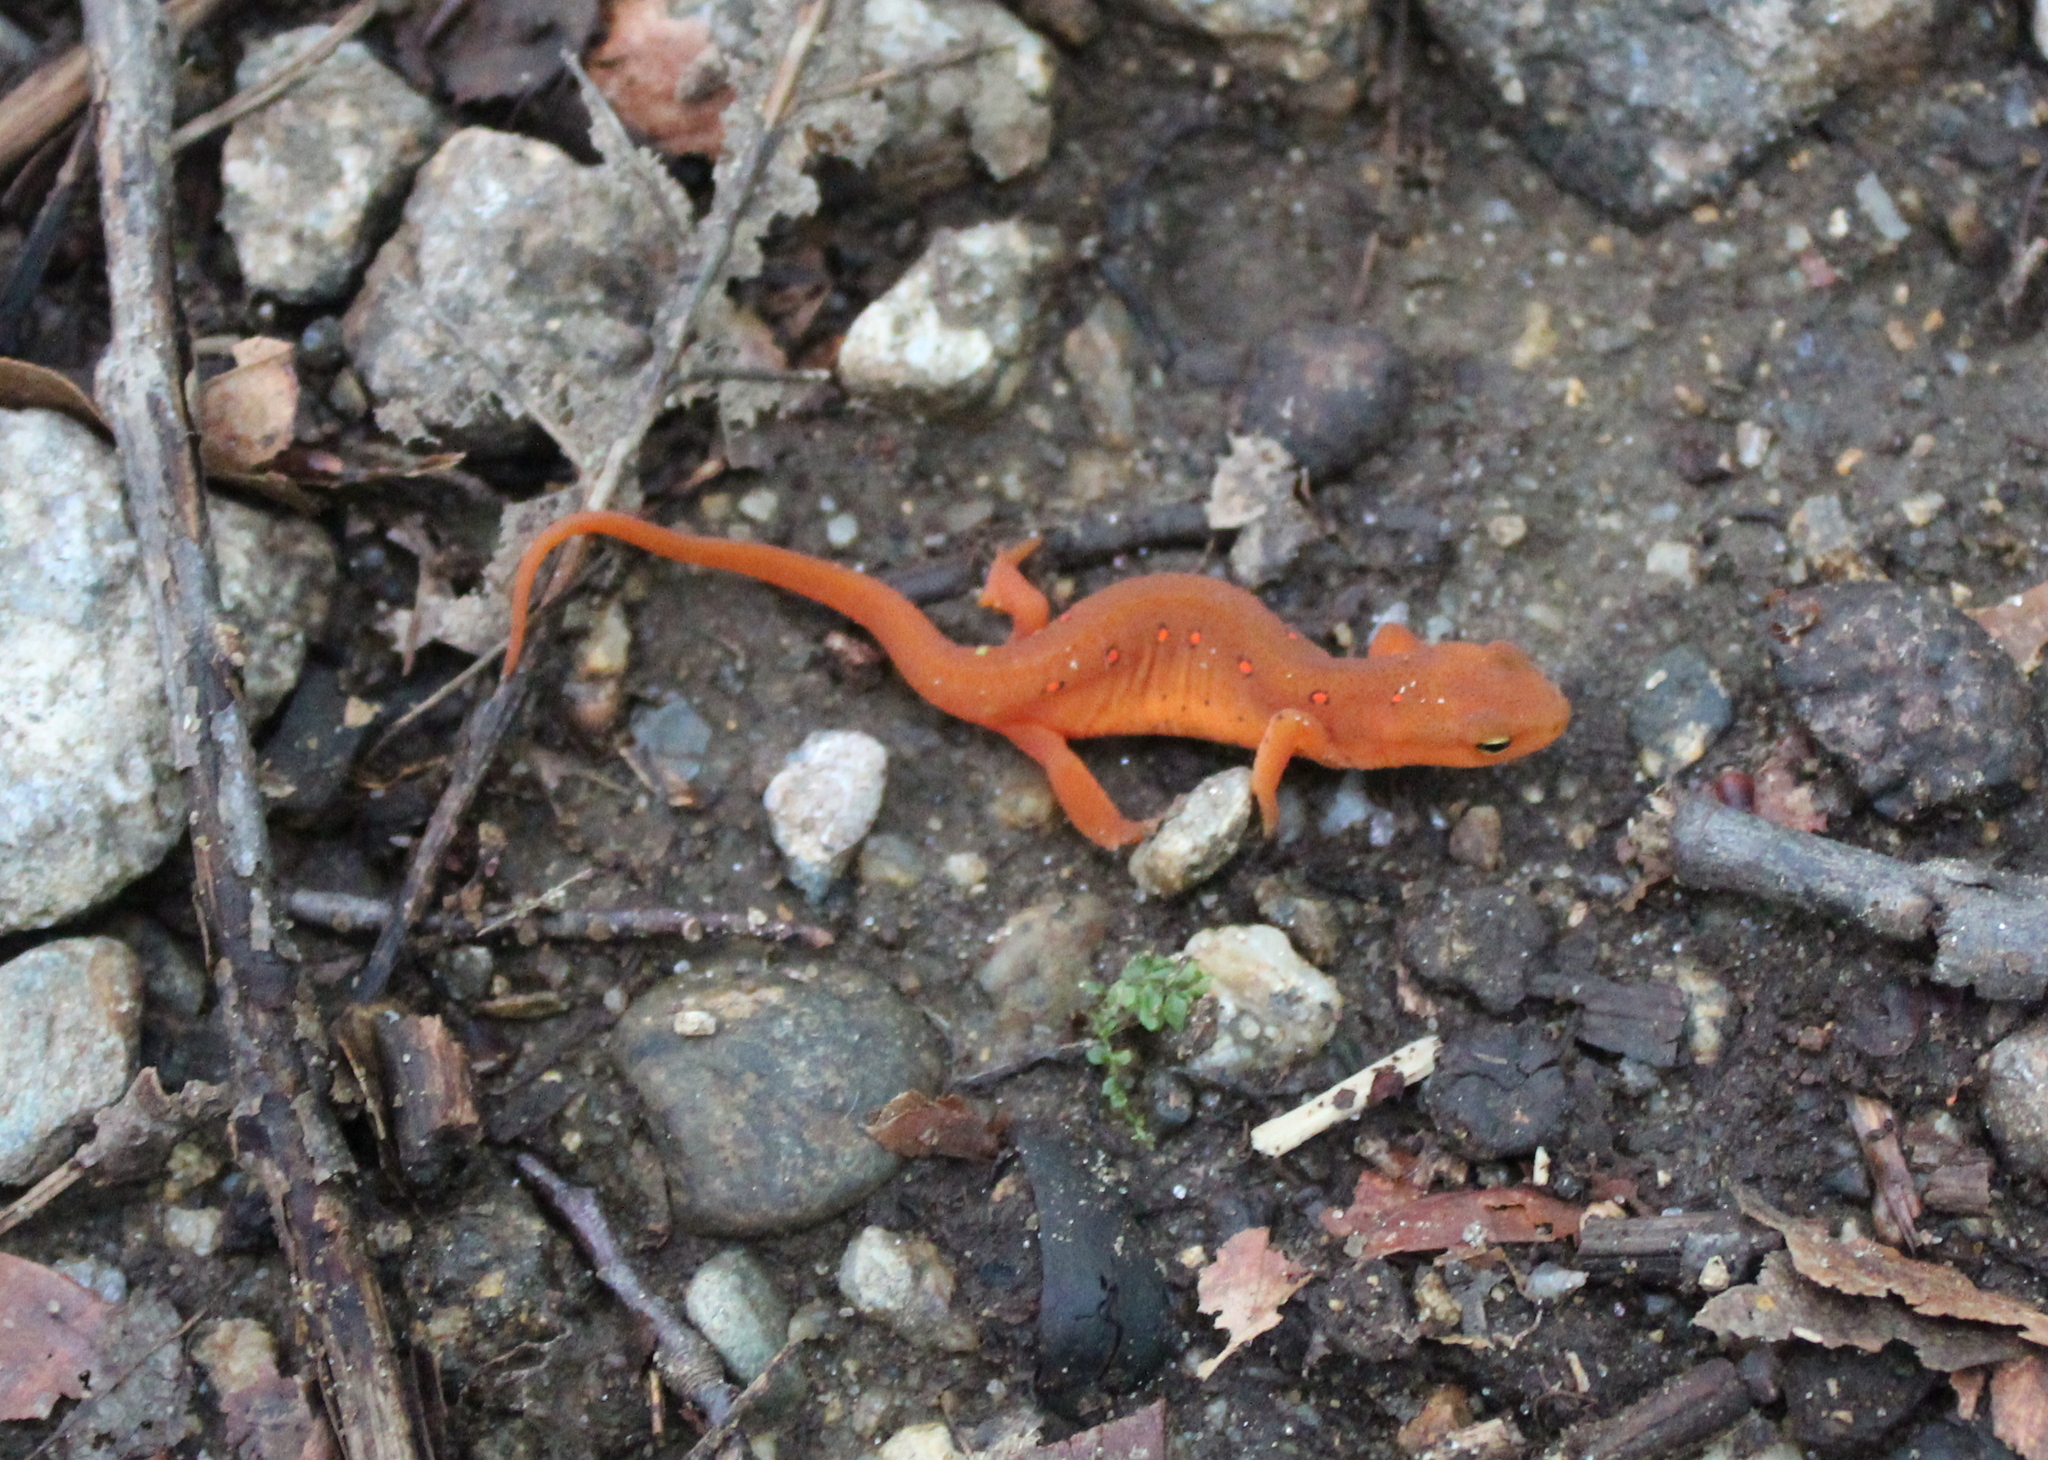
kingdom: Animalia
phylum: Chordata
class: Amphibia
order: Caudata
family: Salamandridae
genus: Notophthalmus
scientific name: Notophthalmus viridescens
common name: Eastern newt
